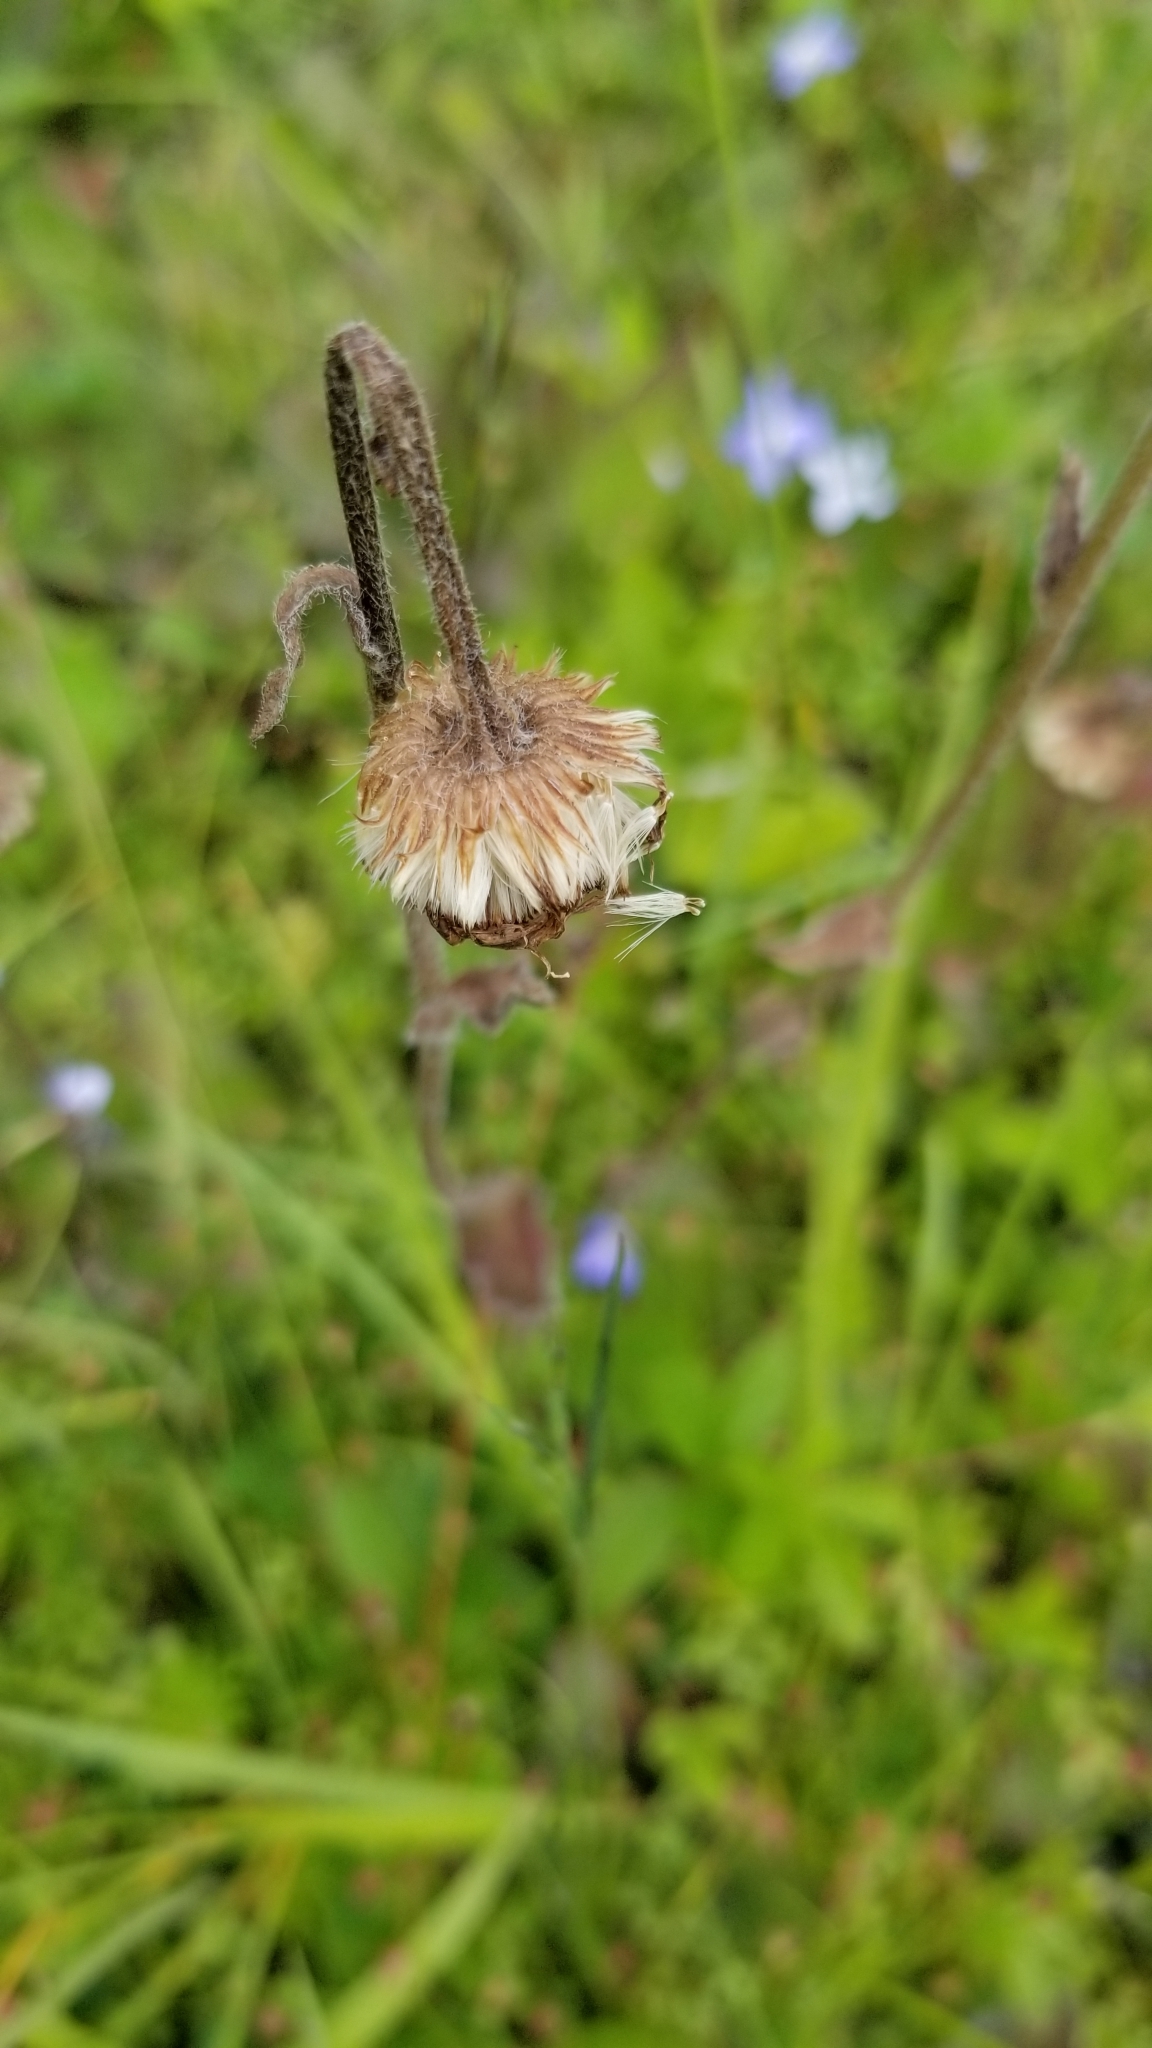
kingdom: Plantae
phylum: Tracheophyta
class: Magnoliopsida
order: Asterales
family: Asteraceae
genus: Erigeron
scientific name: Erigeron pulchellus
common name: Hairy fleabane
